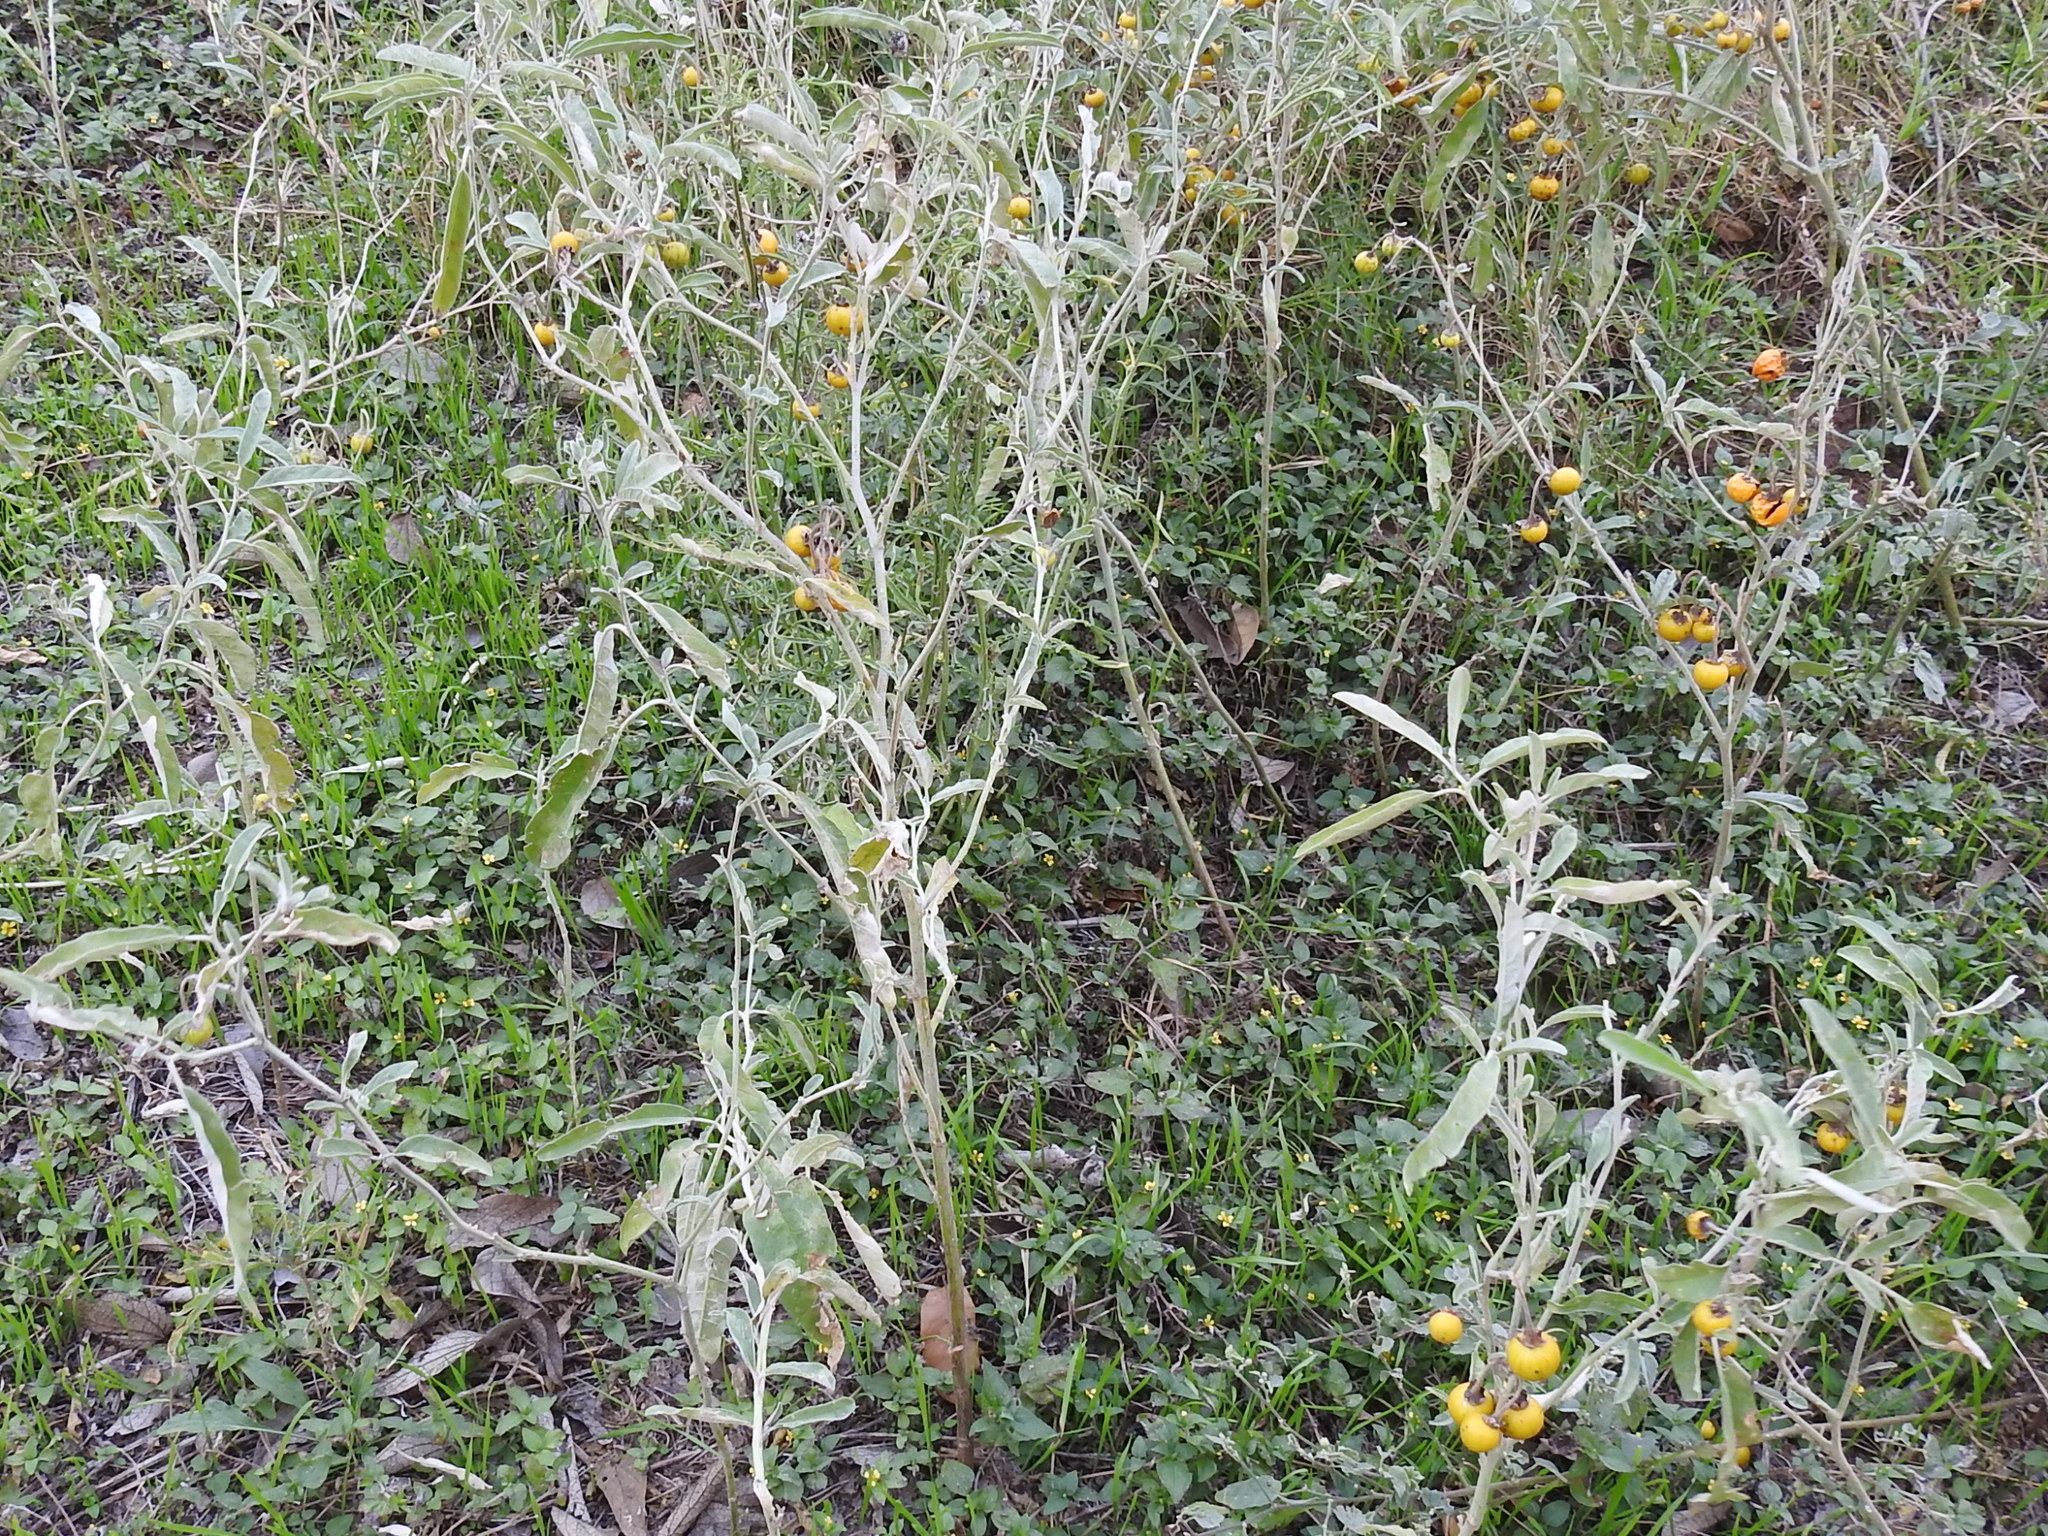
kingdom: Plantae
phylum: Tracheophyta
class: Magnoliopsida
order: Solanales
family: Solanaceae
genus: Solanum
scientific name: Solanum elaeagnifolium
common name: Silverleaf nightshade
